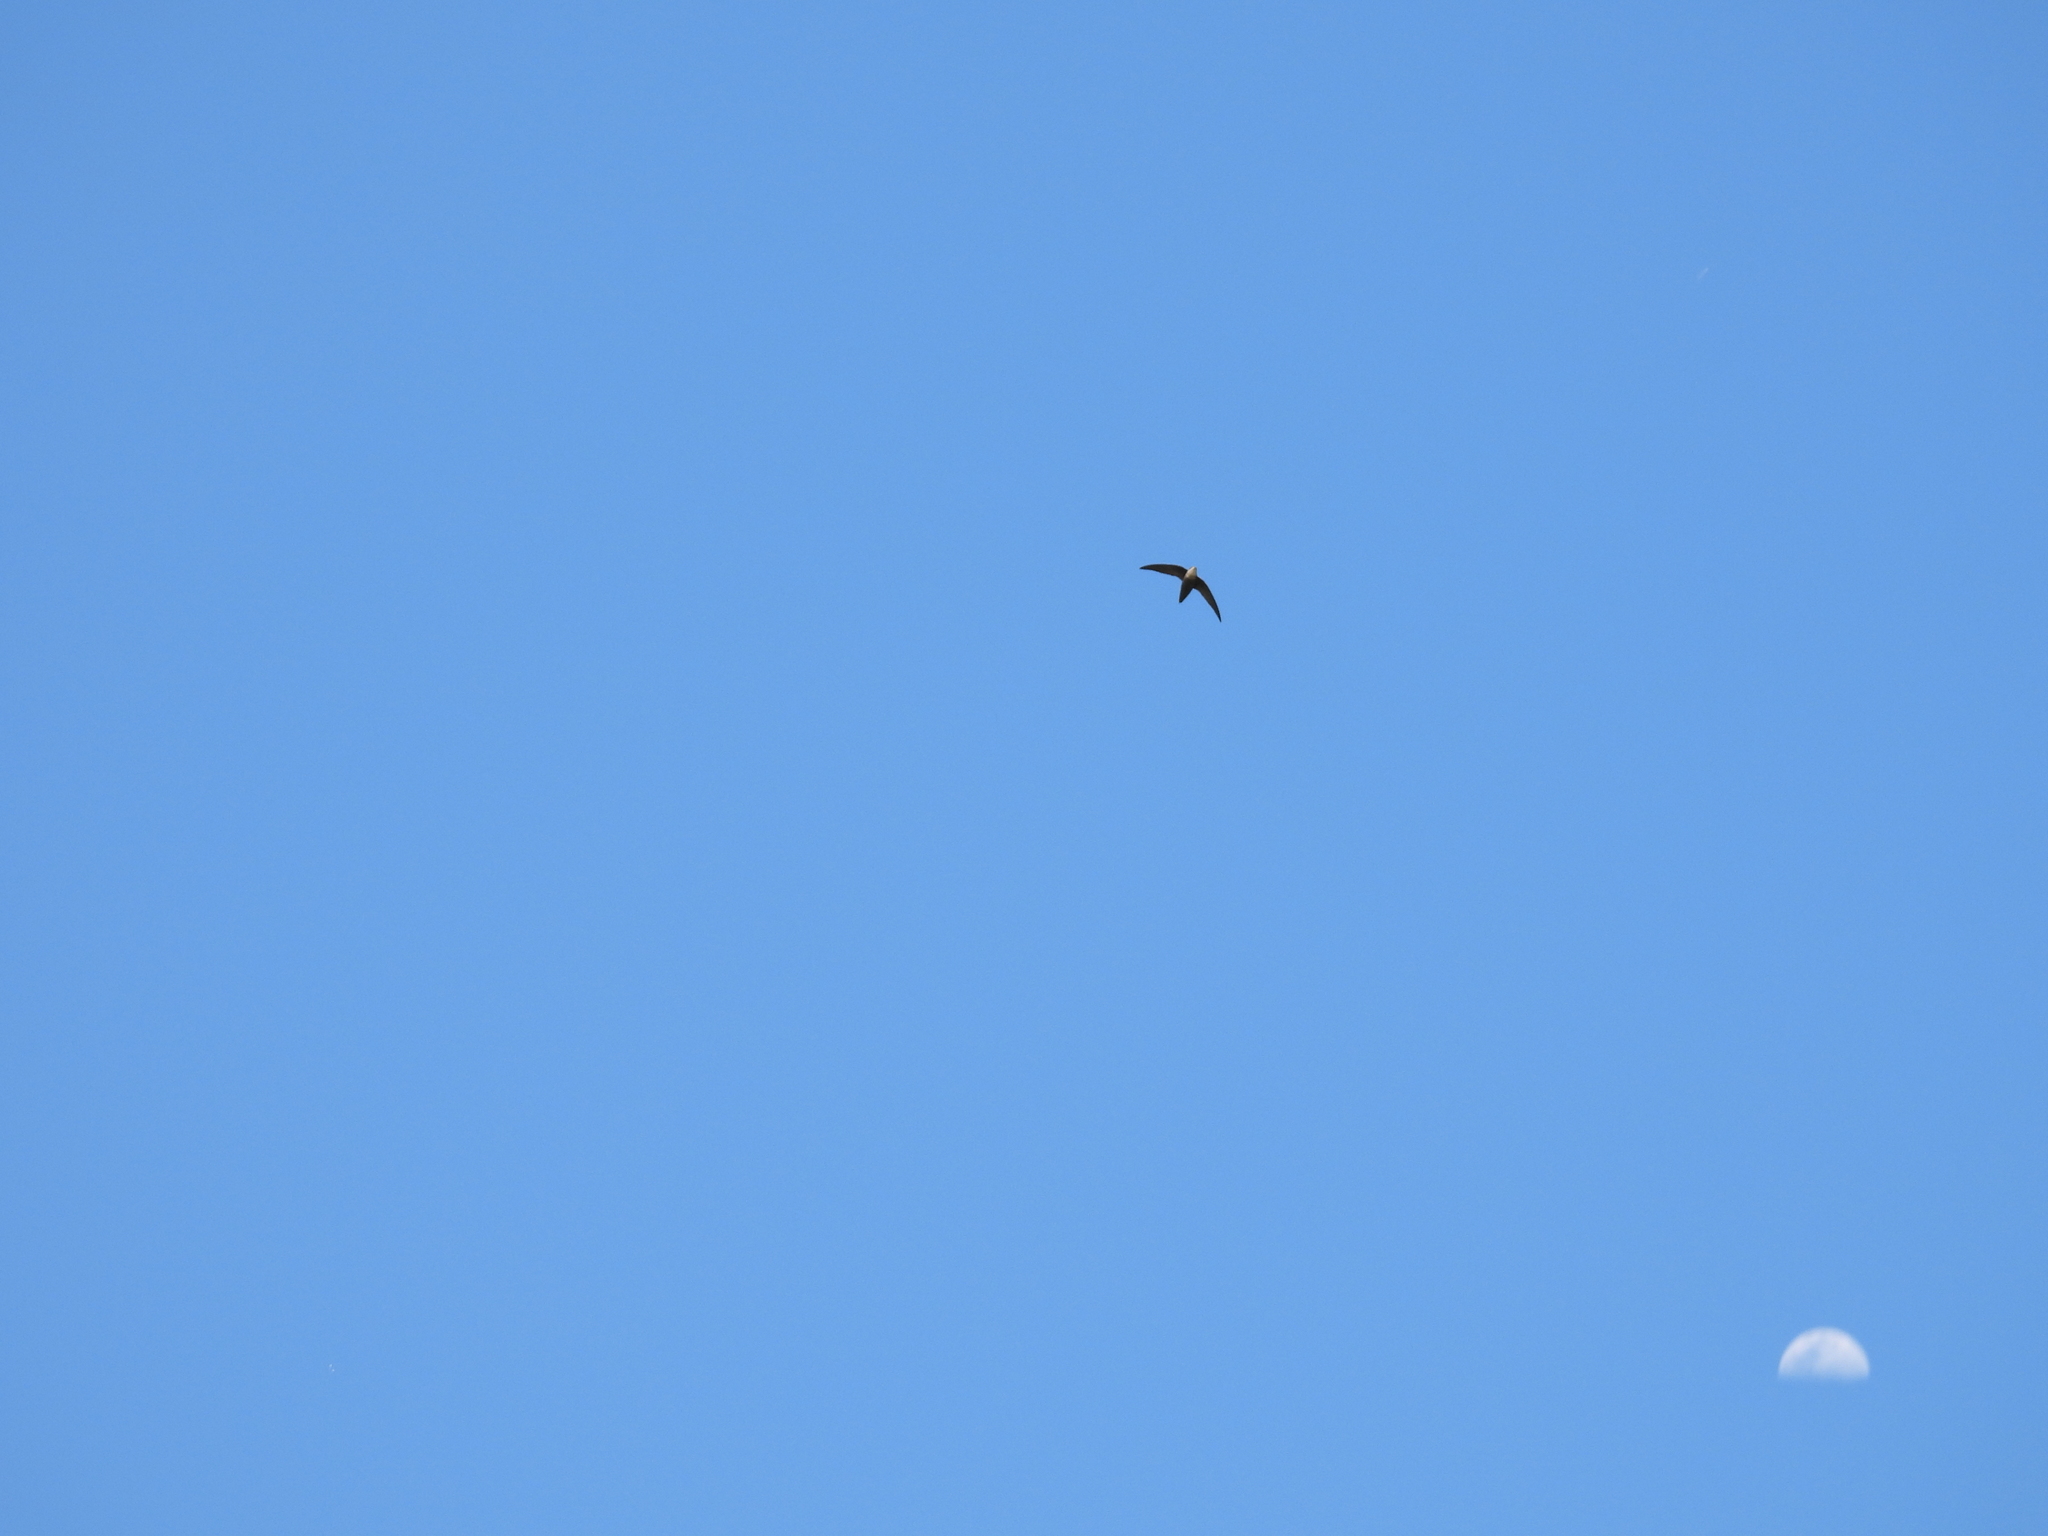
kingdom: Animalia
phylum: Chordata
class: Aves
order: Apodiformes
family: Apodidae
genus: Chaetura
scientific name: Chaetura pelagica
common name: Chimney swift
